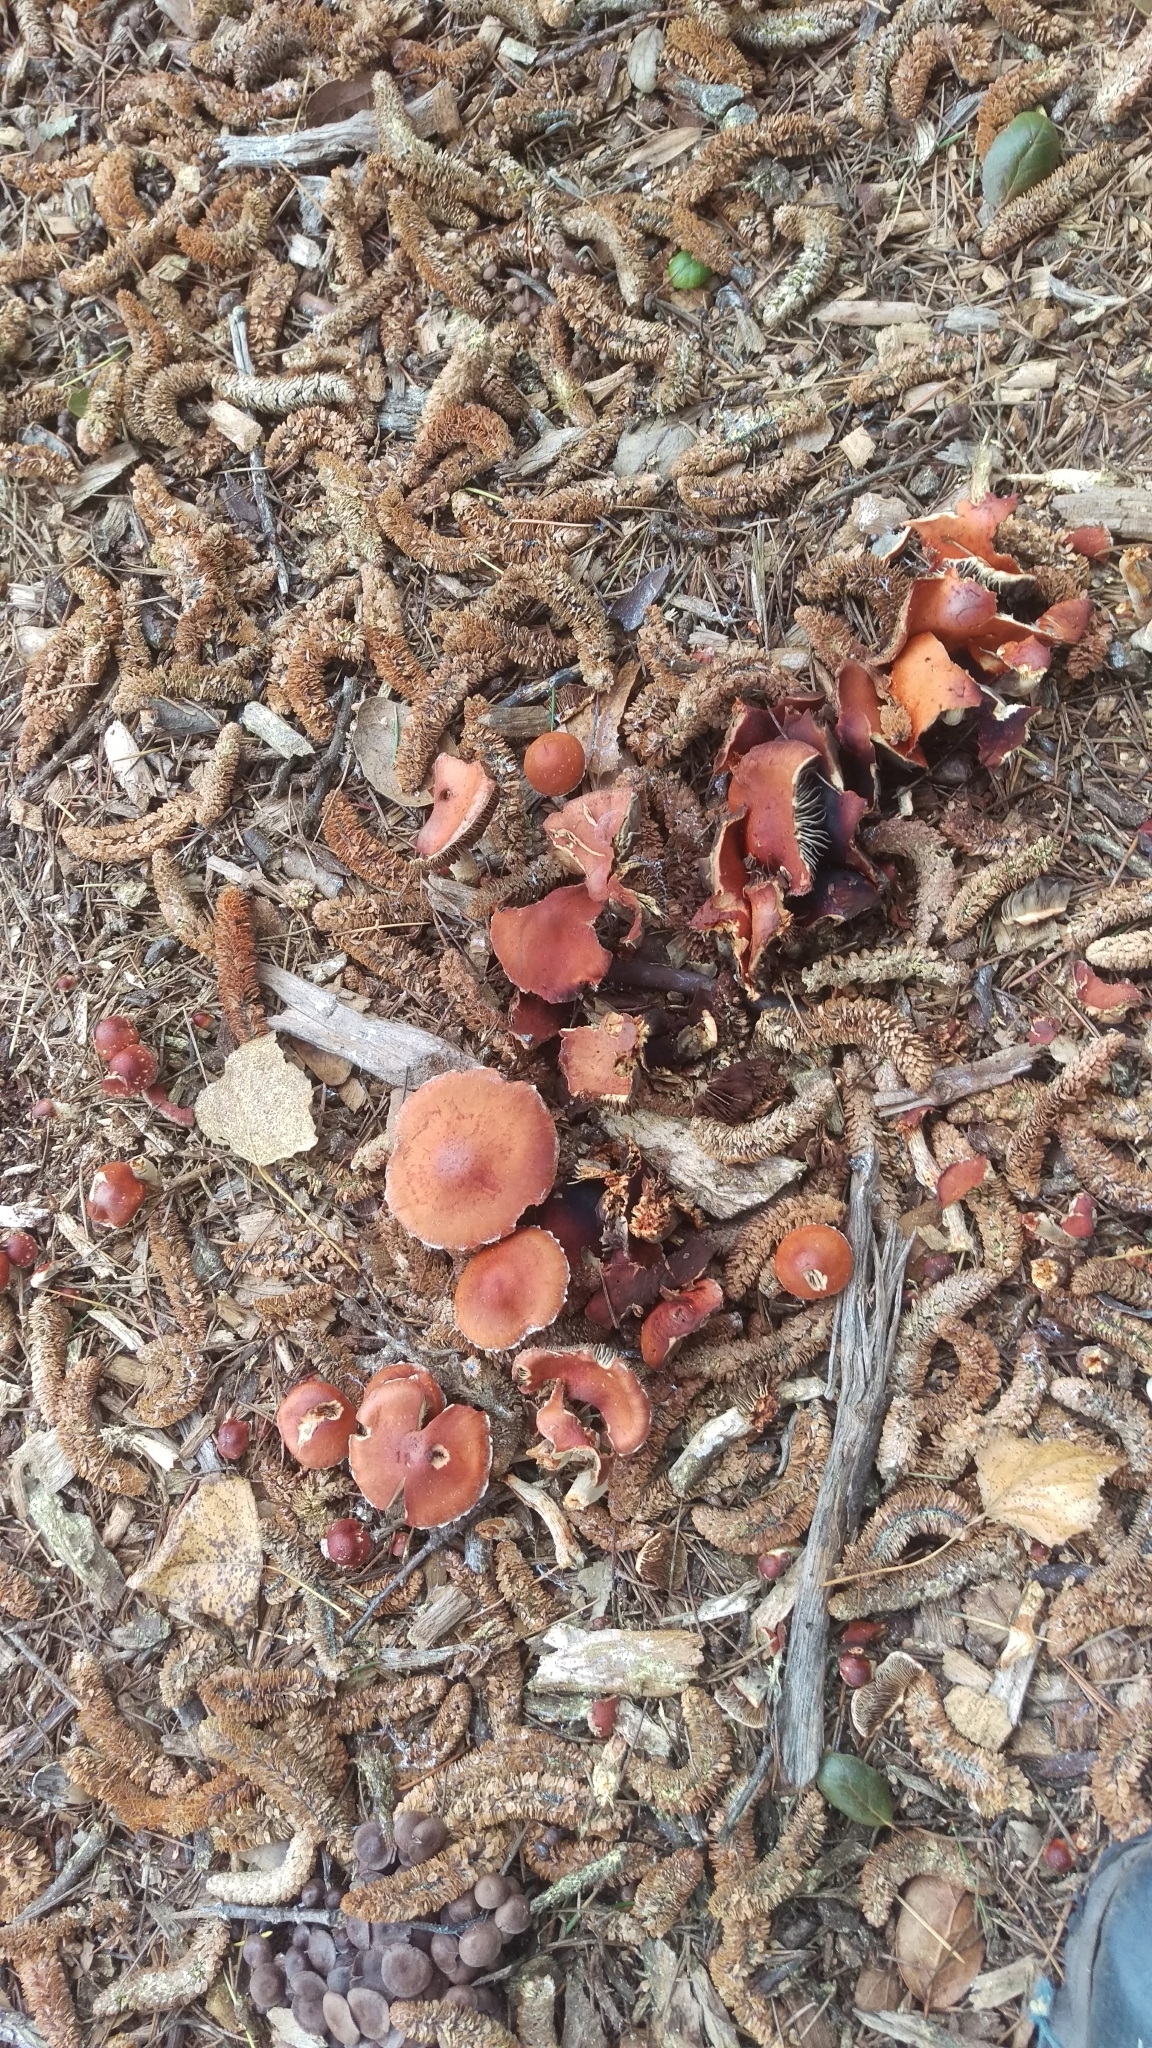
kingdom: Fungi
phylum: Basidiomycota
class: Agaricomycetes
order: Agaricales
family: Strophariaceae
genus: Leratiomyces
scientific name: Leratiomyces ceres
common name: Redlead roundhead
